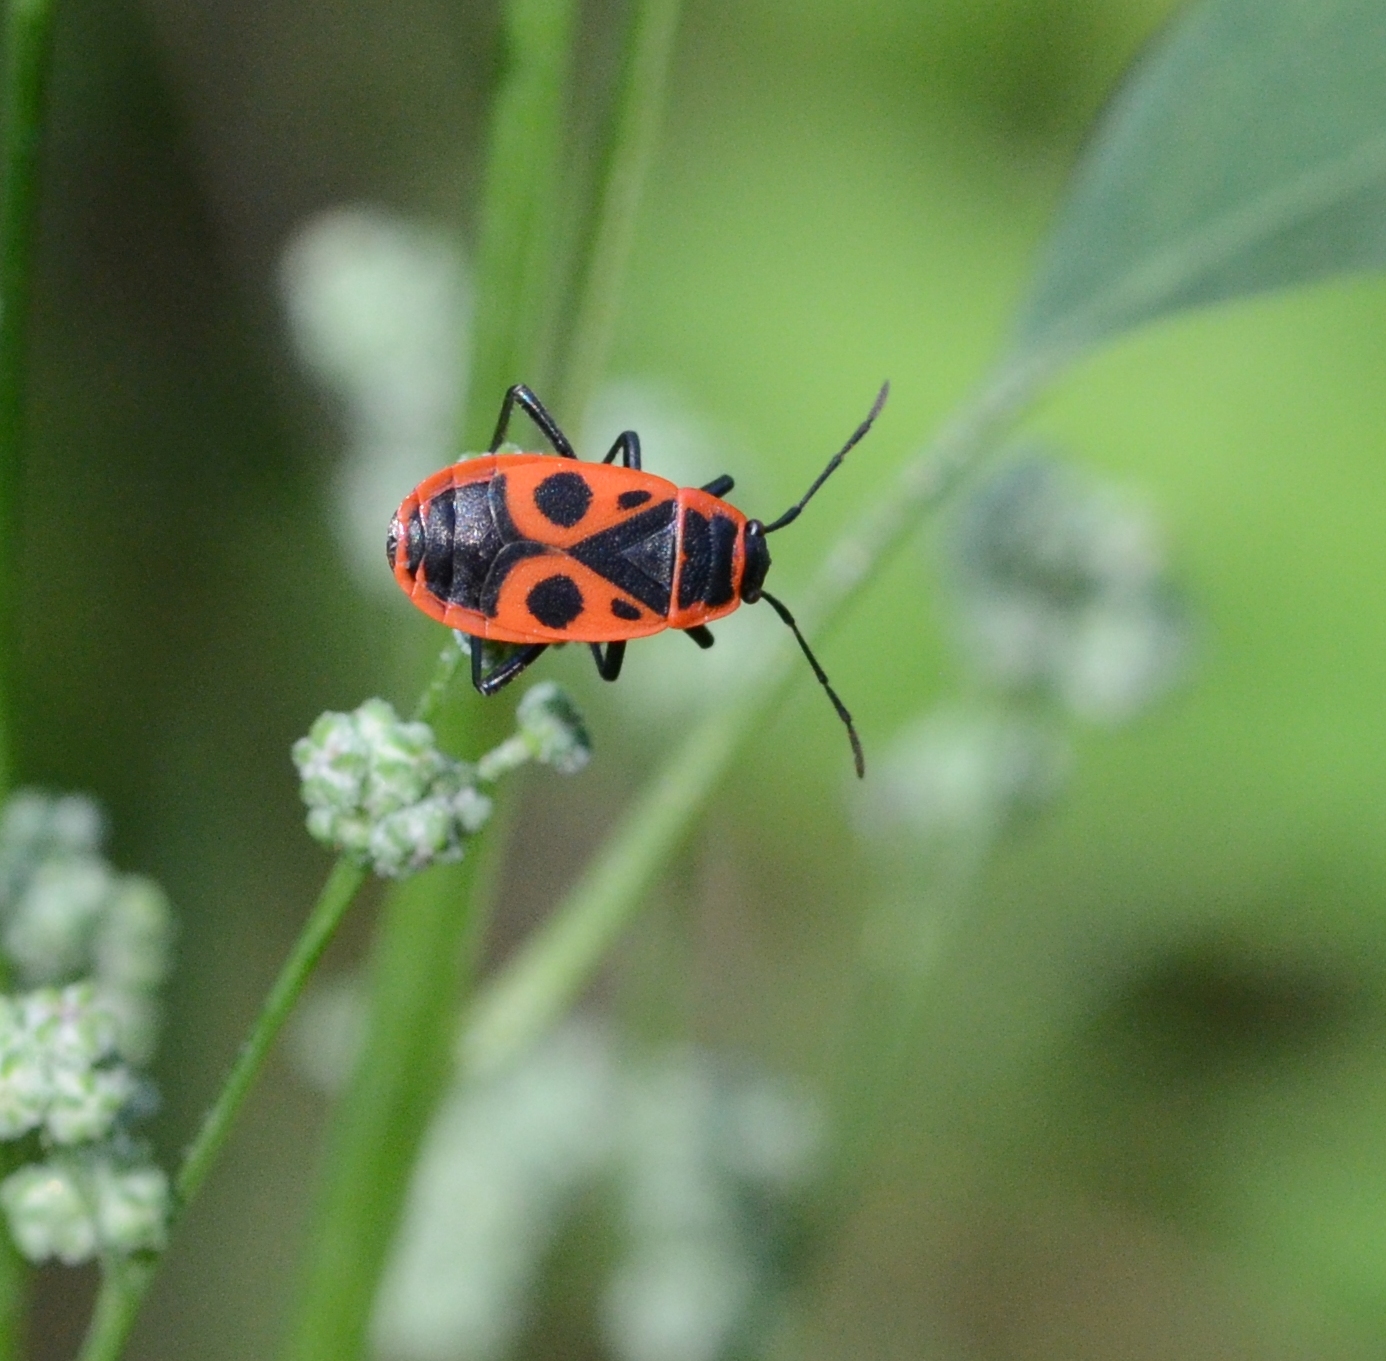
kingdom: Animalia
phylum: Arthropoda
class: Insecta
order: Hemiptera
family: Pyrrhocoridae
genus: Pyrrhocoris
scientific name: Pyrrhocoris apterus
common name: Firebug
